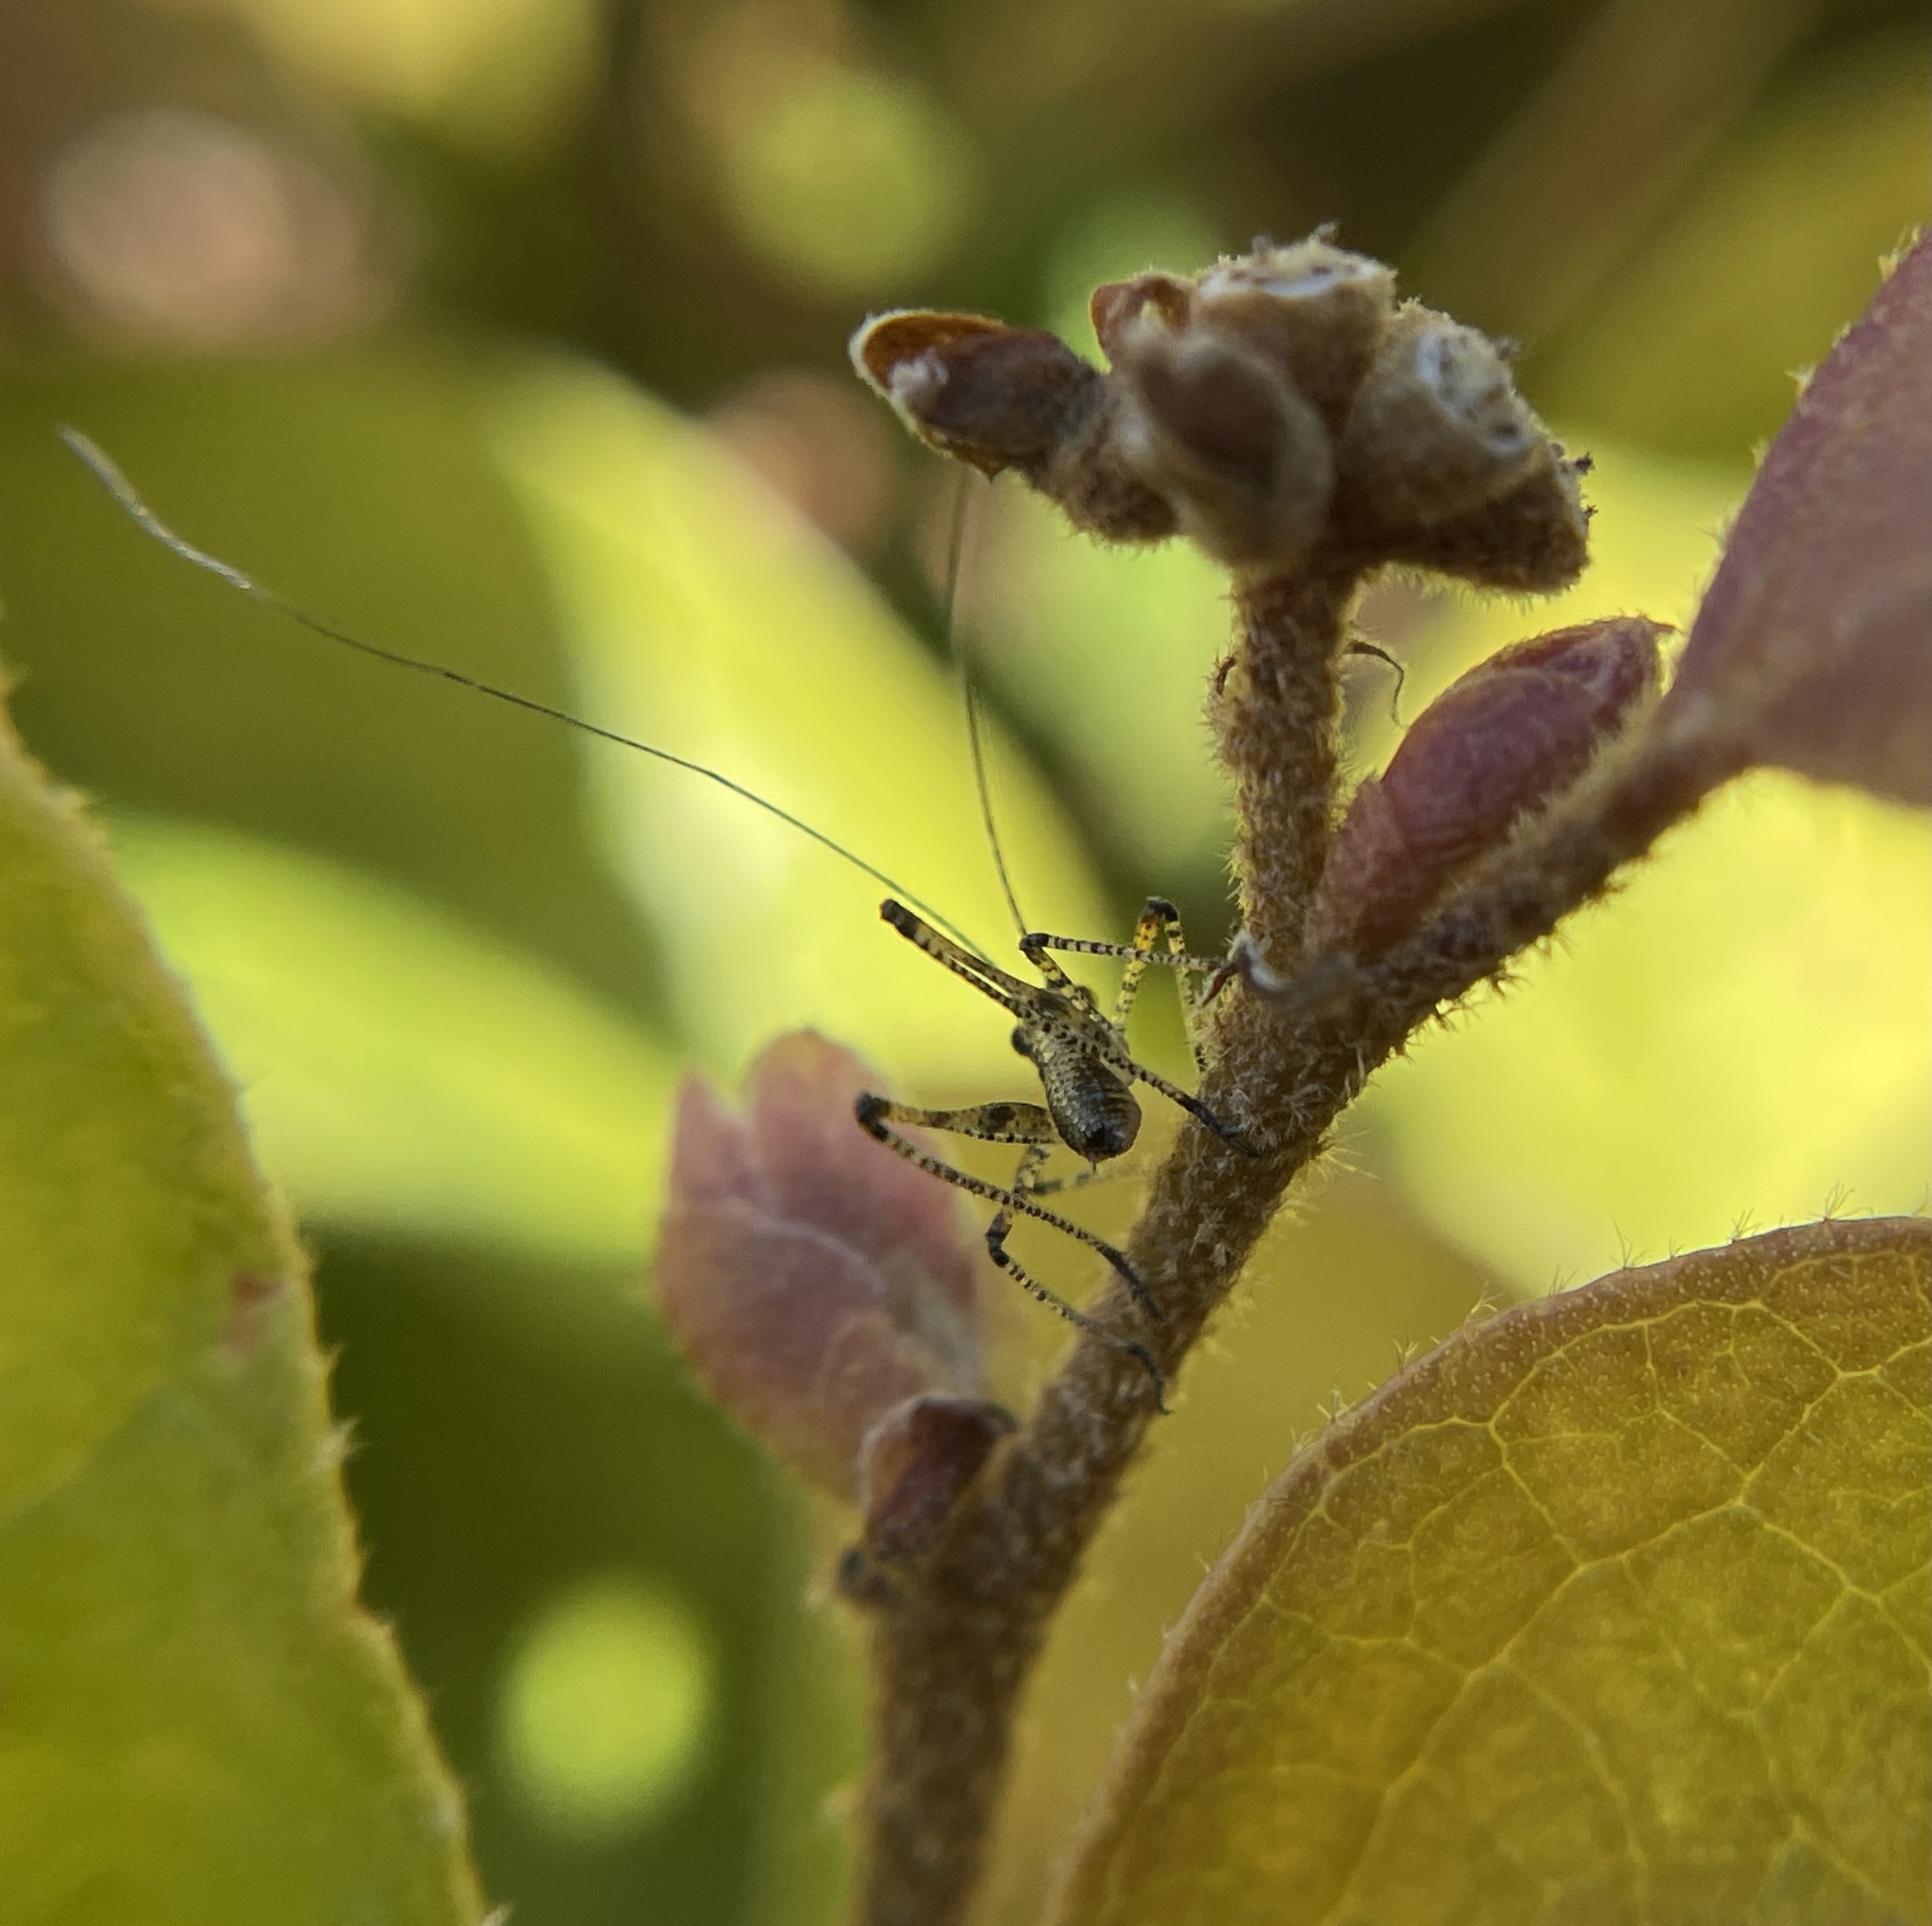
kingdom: Animalia
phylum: Arthropoda
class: Insecta
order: Orthoptera
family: Tettigoniidae
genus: Phaneroptera
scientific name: Phaneroptera nana
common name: Southern sickle bush-cricket
